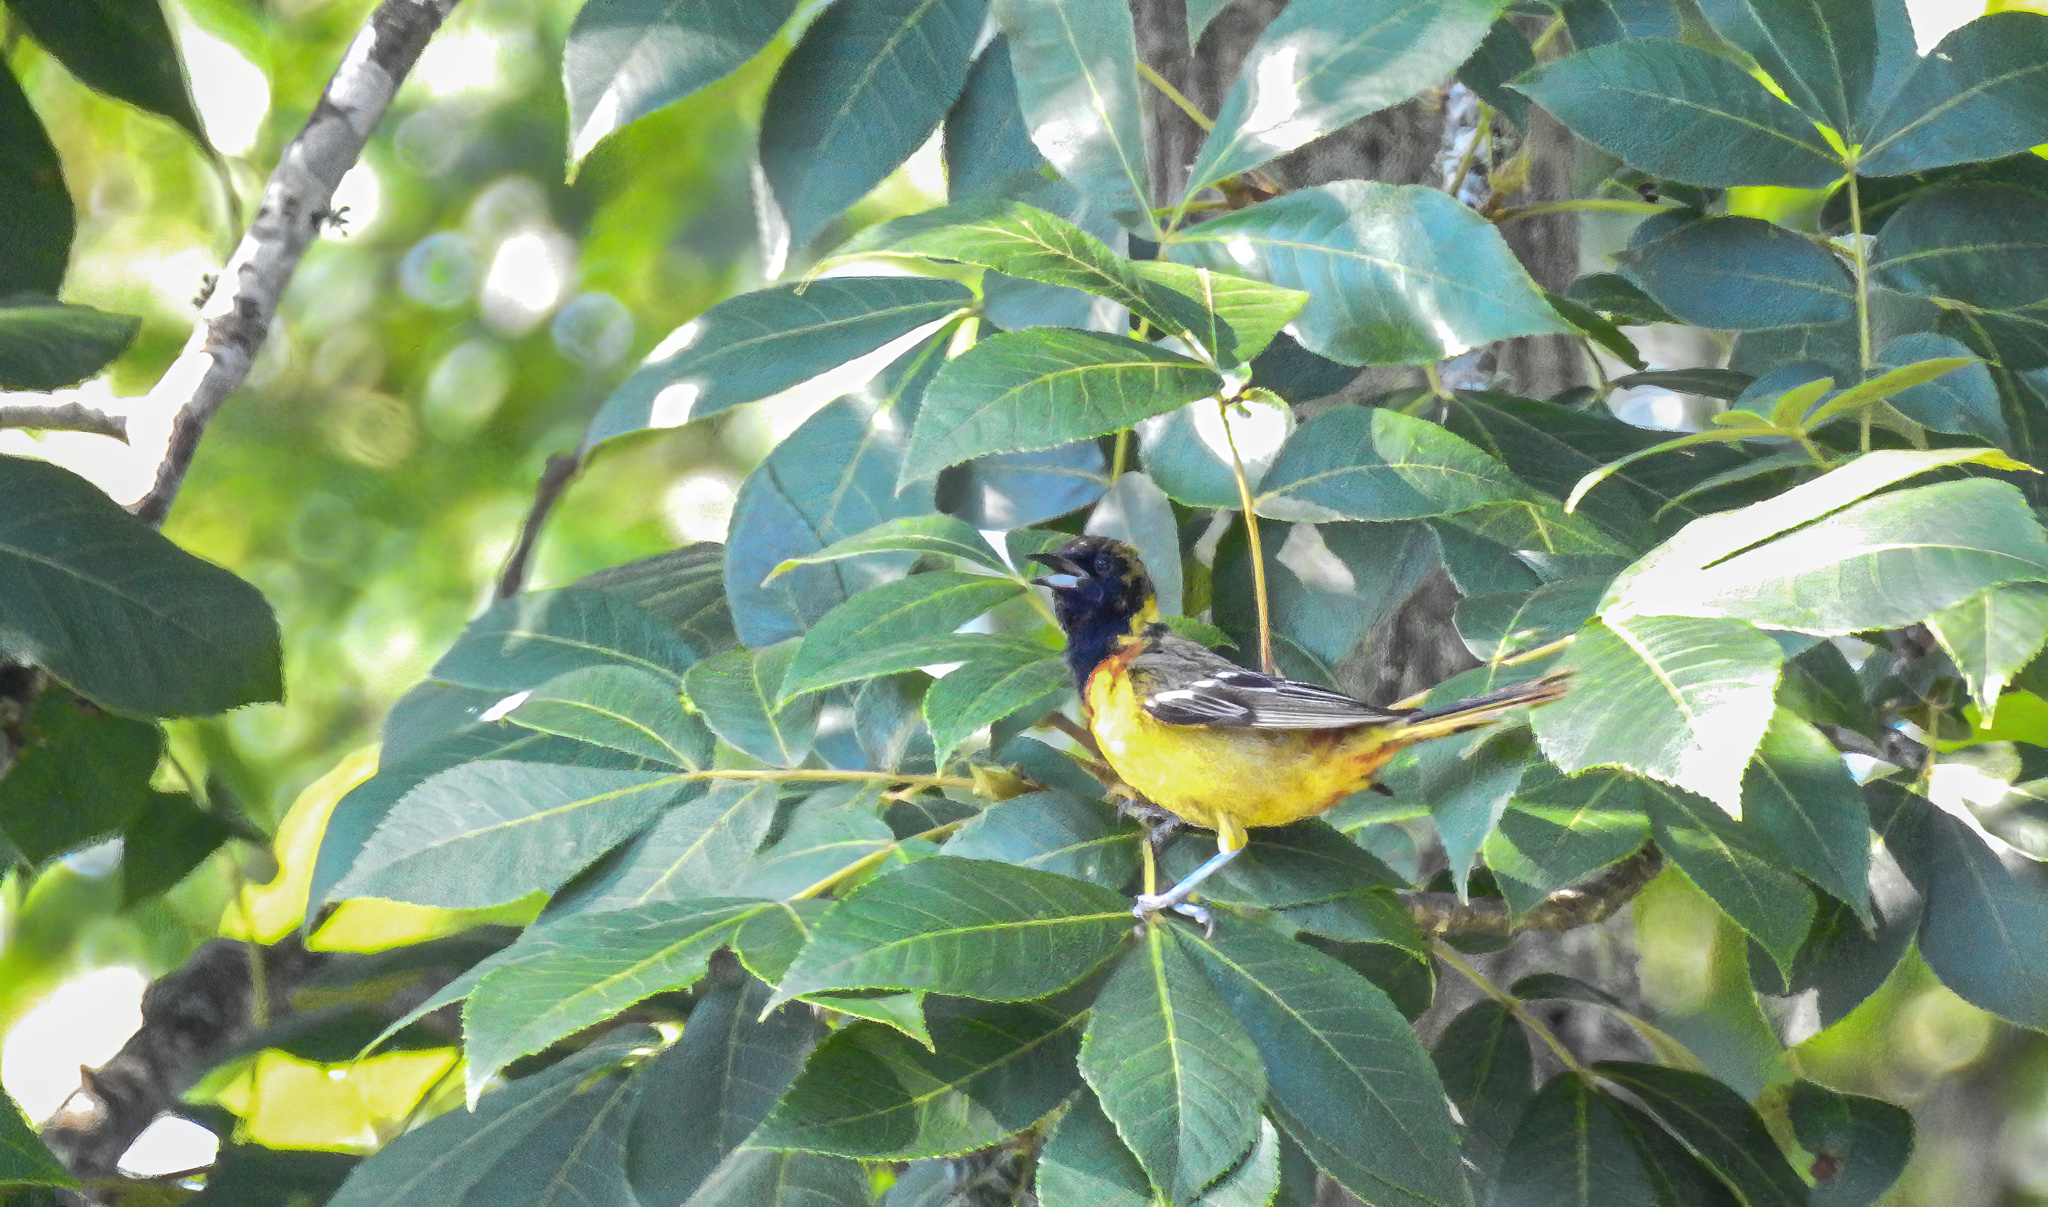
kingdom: Animalia
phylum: Chordata
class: Aves
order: Passeriformes
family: Icteridae
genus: Icterus
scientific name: Icterus spurius
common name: Orchard oriole
